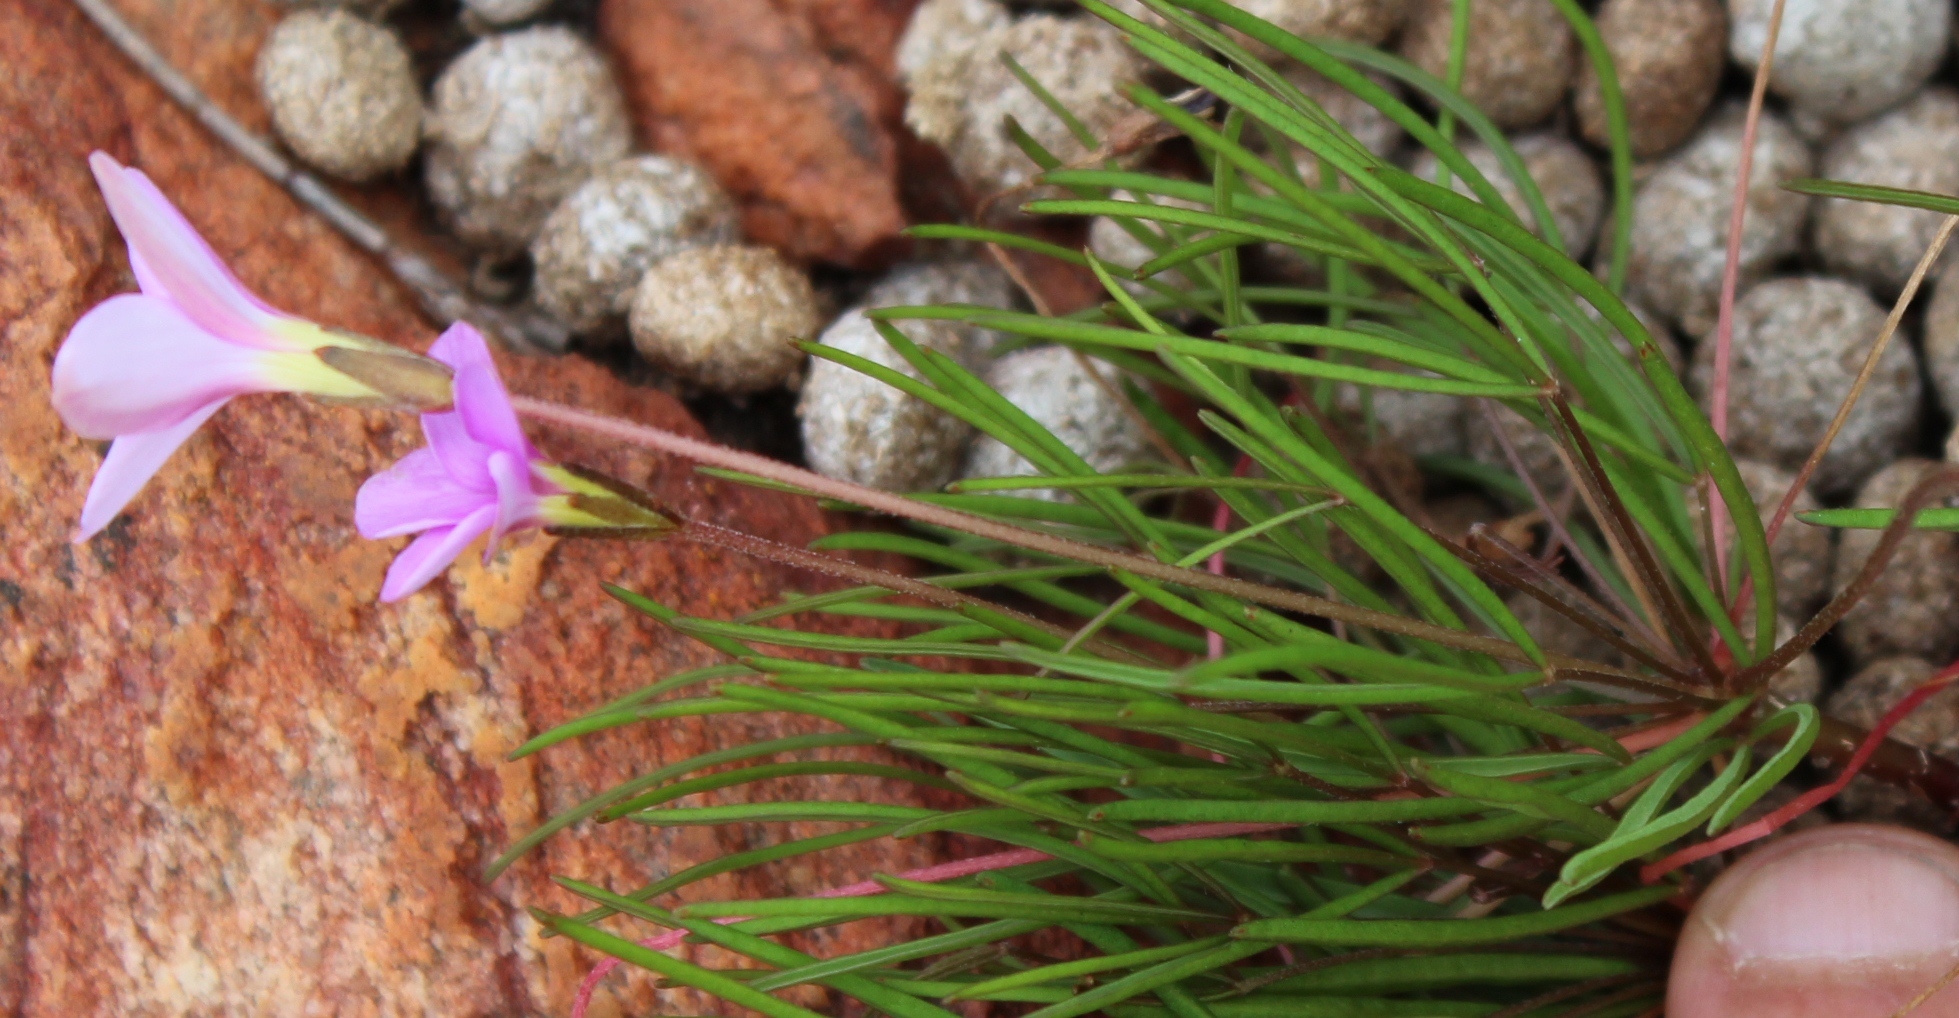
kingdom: Plantae
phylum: Tracheophyta
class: Magnoliopsida
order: Oxalidales
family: Oxalidaceae
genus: Oxalis
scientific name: Oxalis polyphylla
